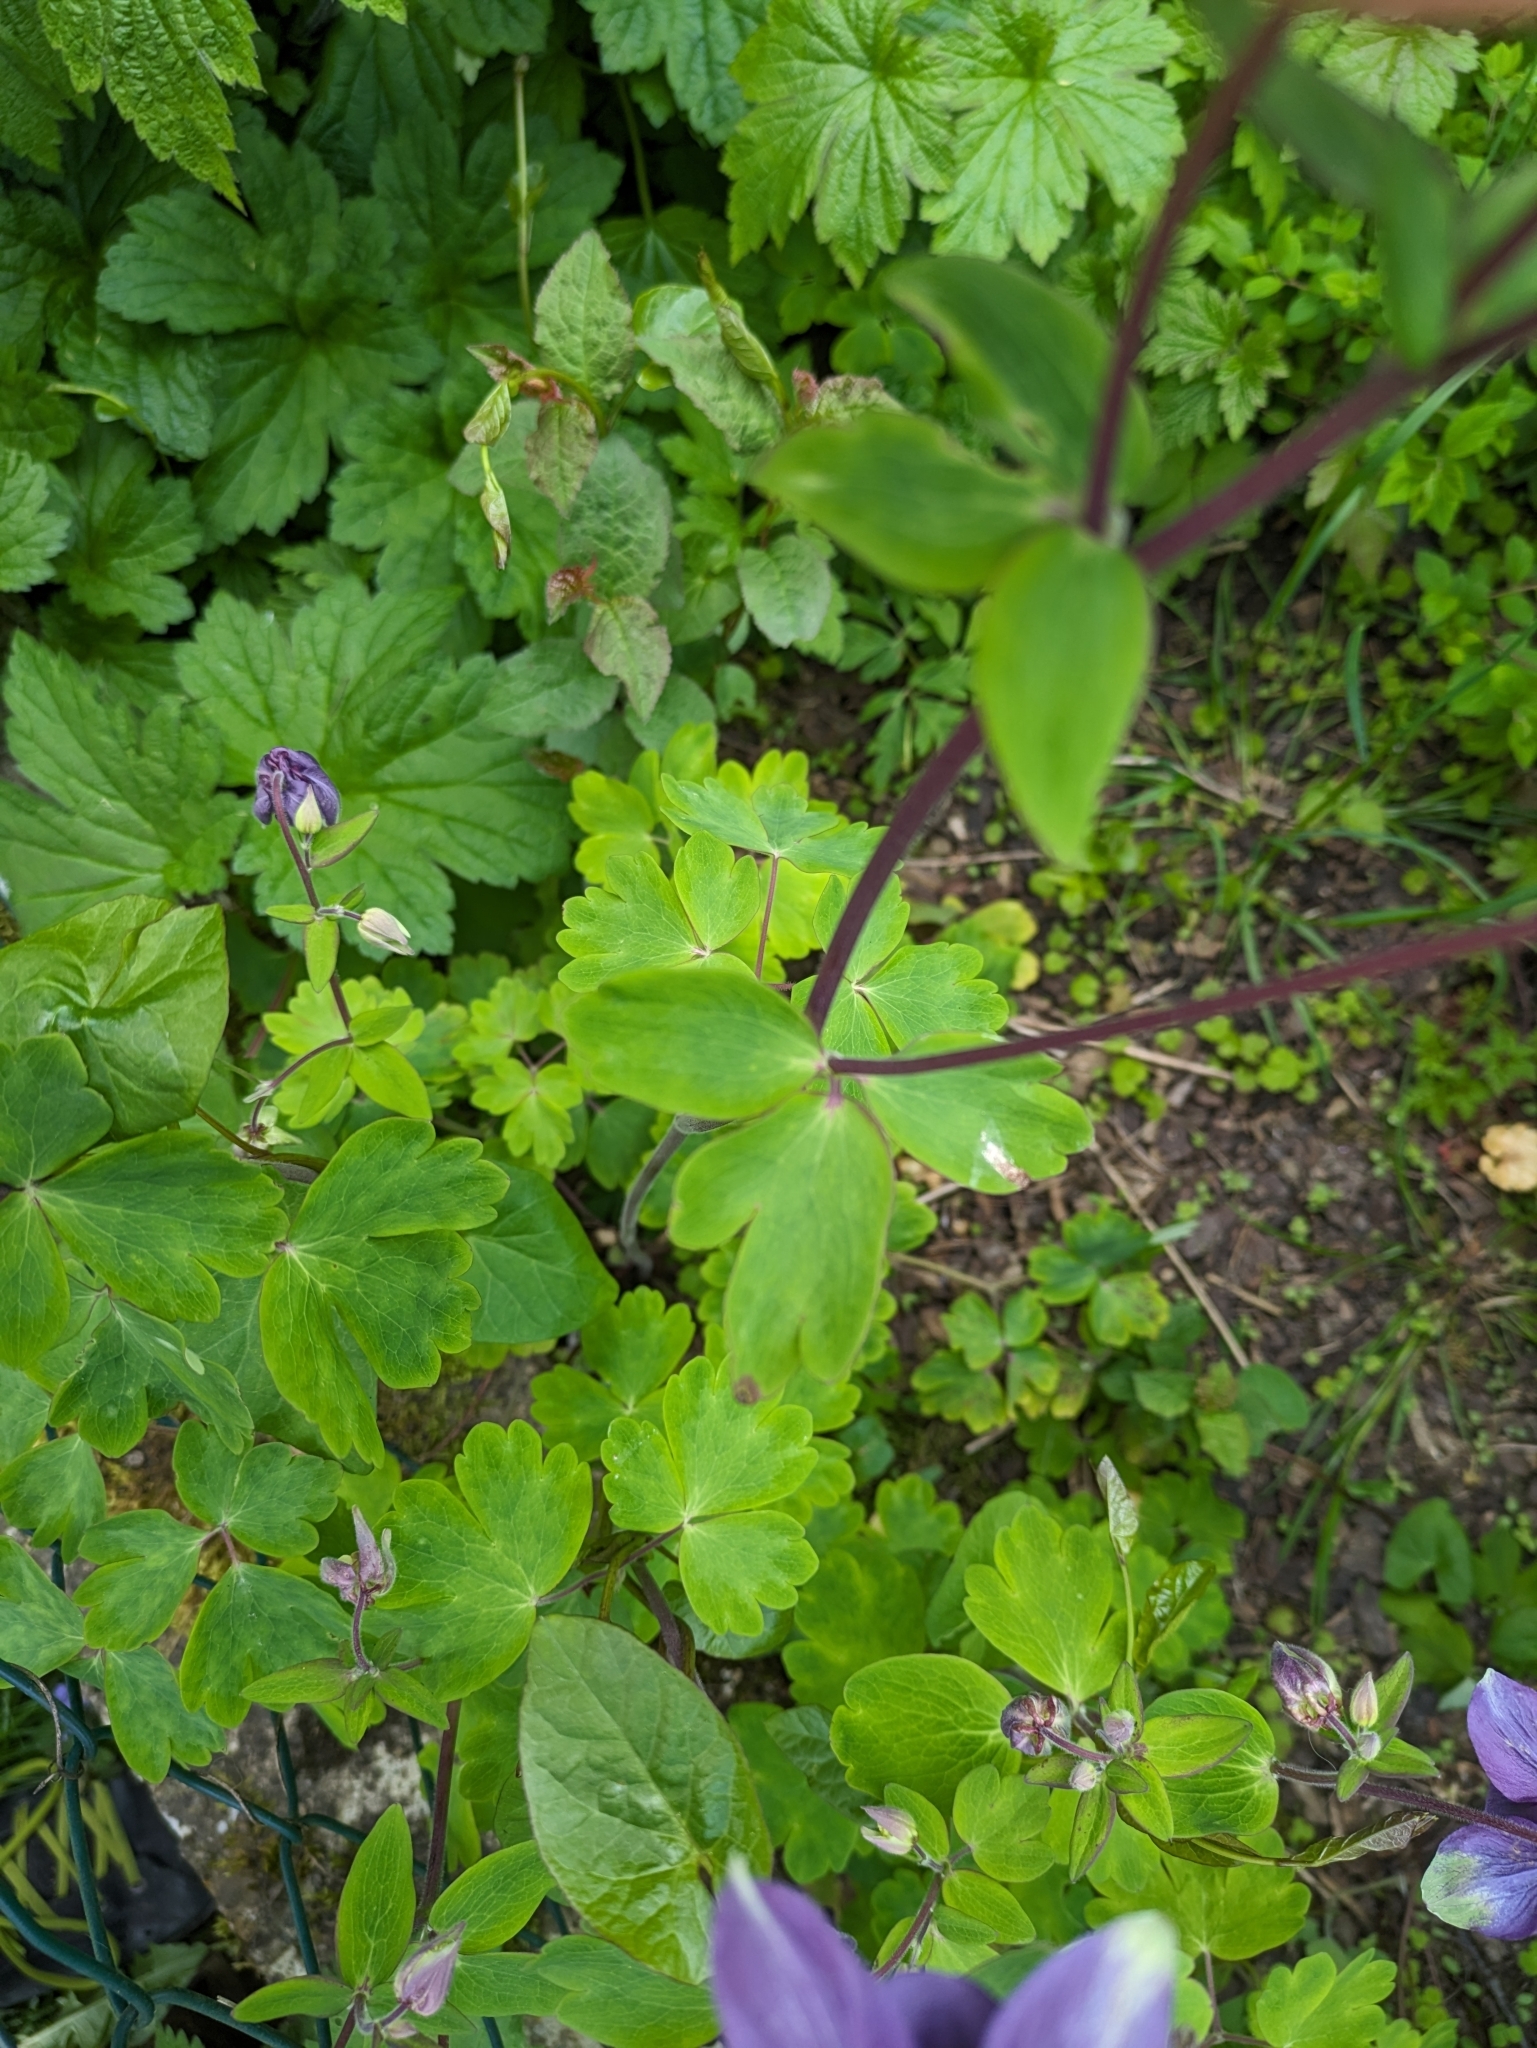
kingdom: Plantae
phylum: Tracheophyta
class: Magnoliopsida
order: Ranunculales
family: Ranunculaceae
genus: Aquilegia
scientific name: Aquilegia vulgaris
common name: Columbine
